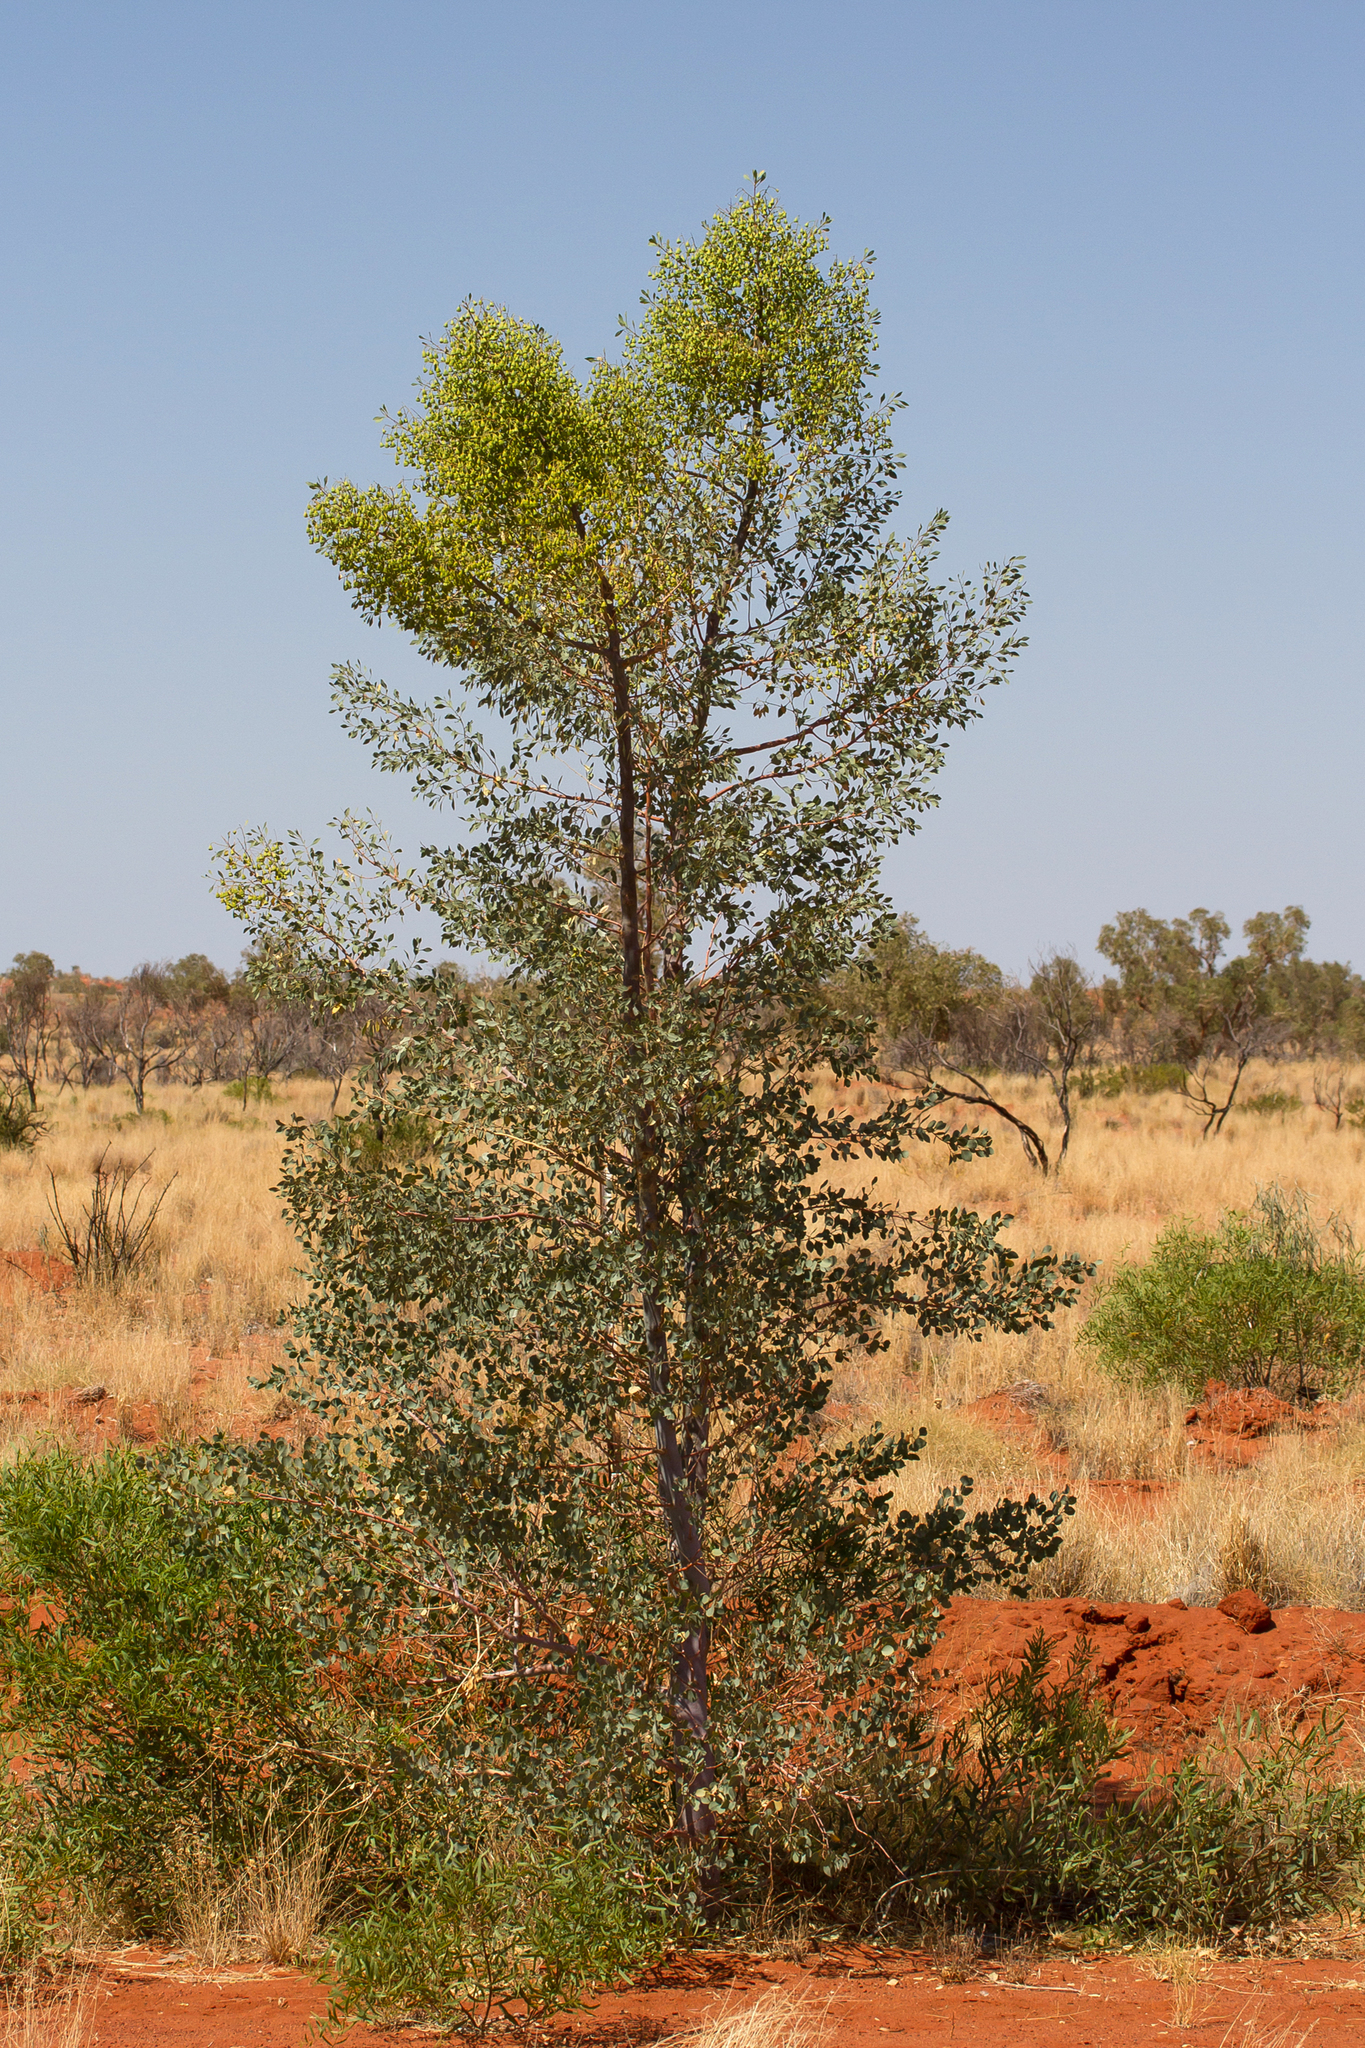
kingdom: Plantae
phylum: Tracheophyta
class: Magnoliopsida
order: Brassicales
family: Gyrostemonaceae
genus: Codonocarpus
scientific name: Codonocarpus cotinifolius
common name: Mustardtree
